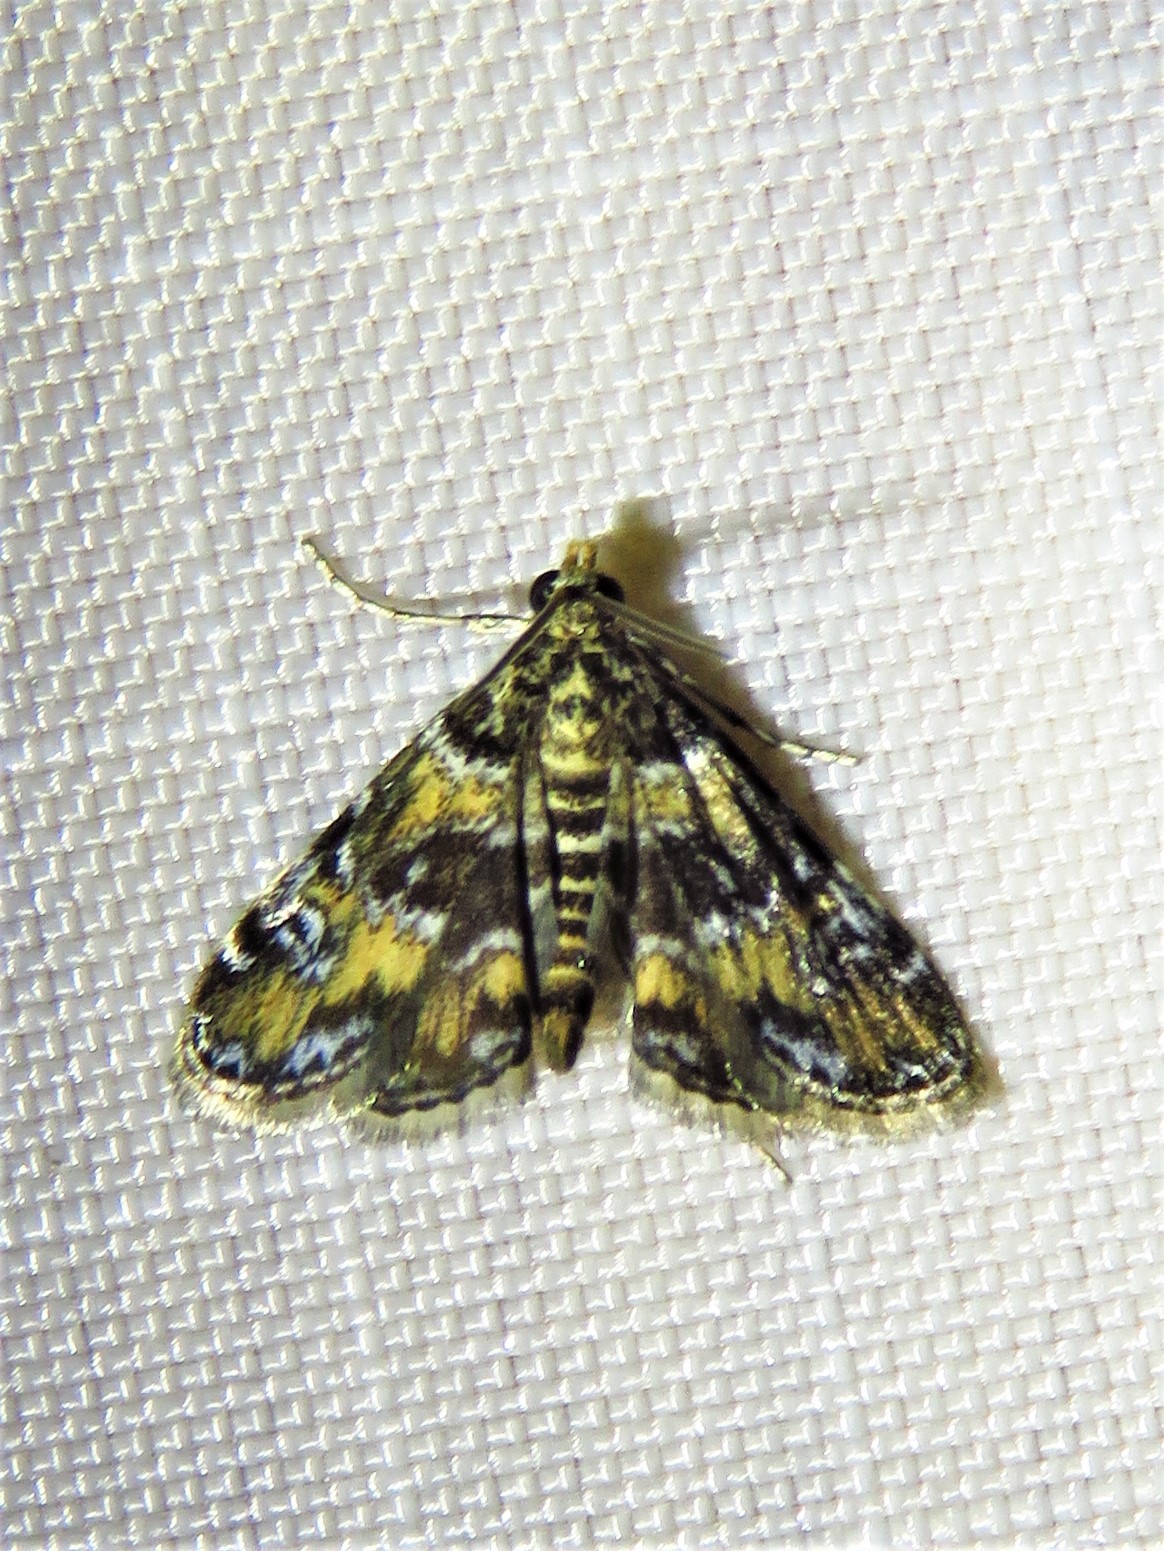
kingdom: Animalia
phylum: Arthropoda
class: Insecta
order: Lepidoptera
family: Crambidae
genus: Elophila
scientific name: Elophila obliteralis
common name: Waterlily leafcutter moth
